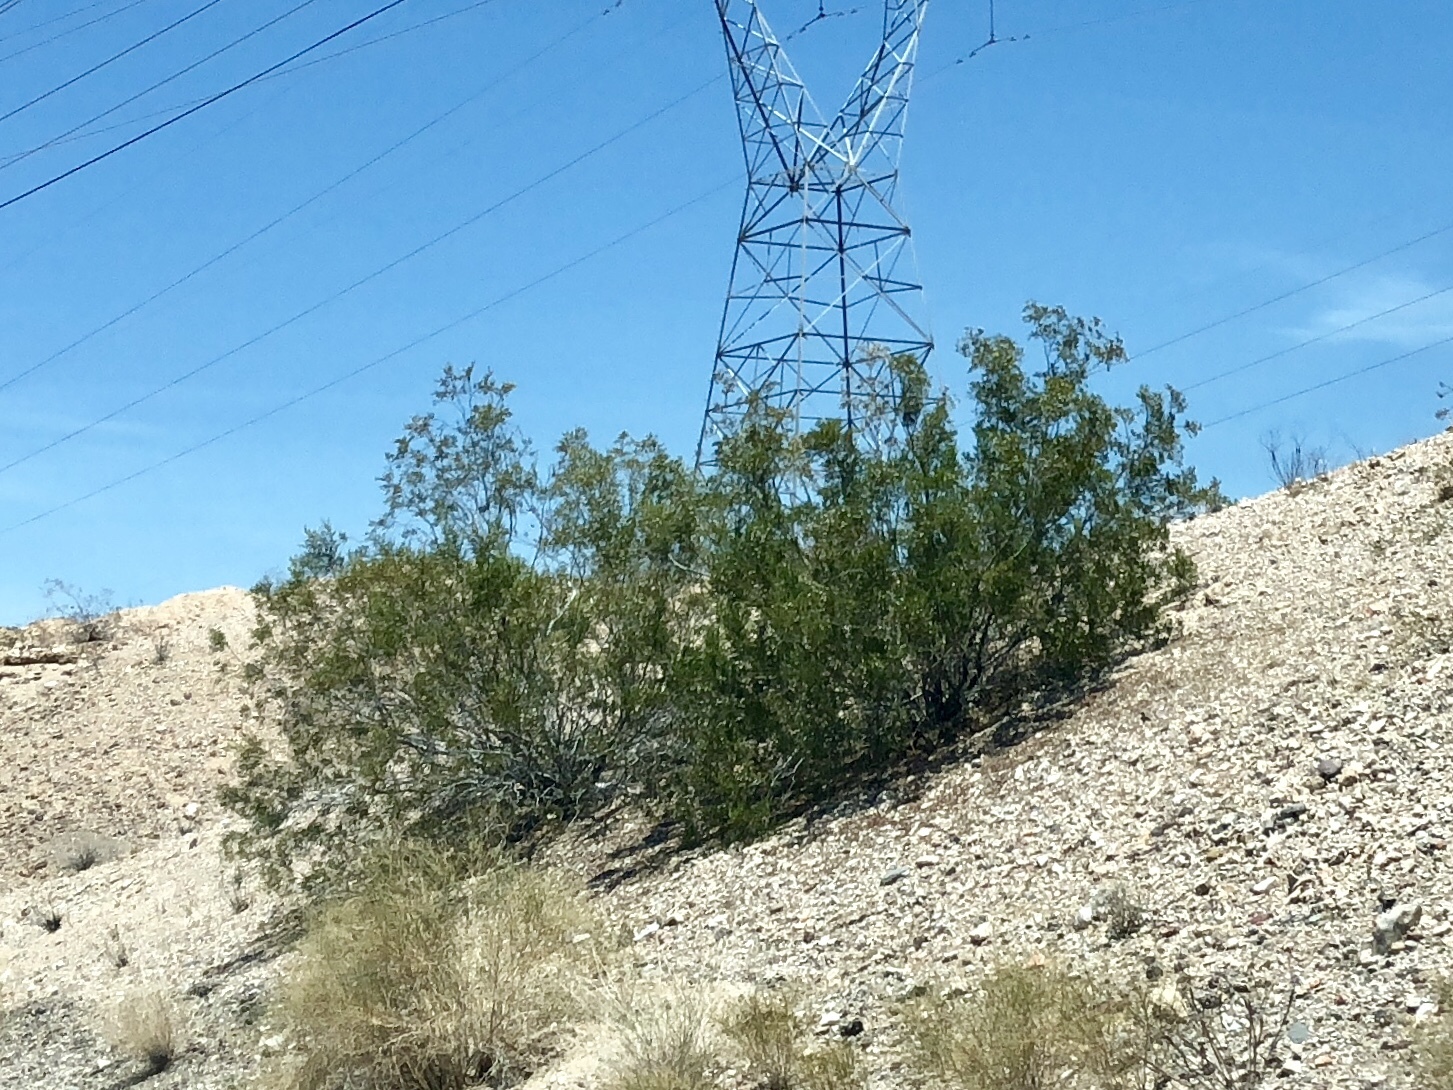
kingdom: Plantae
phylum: Tracheophyta
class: Magnoliopsida
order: Zygophyllales
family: Zygophyllaceae
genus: Larrea
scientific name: Larrea tridentata
